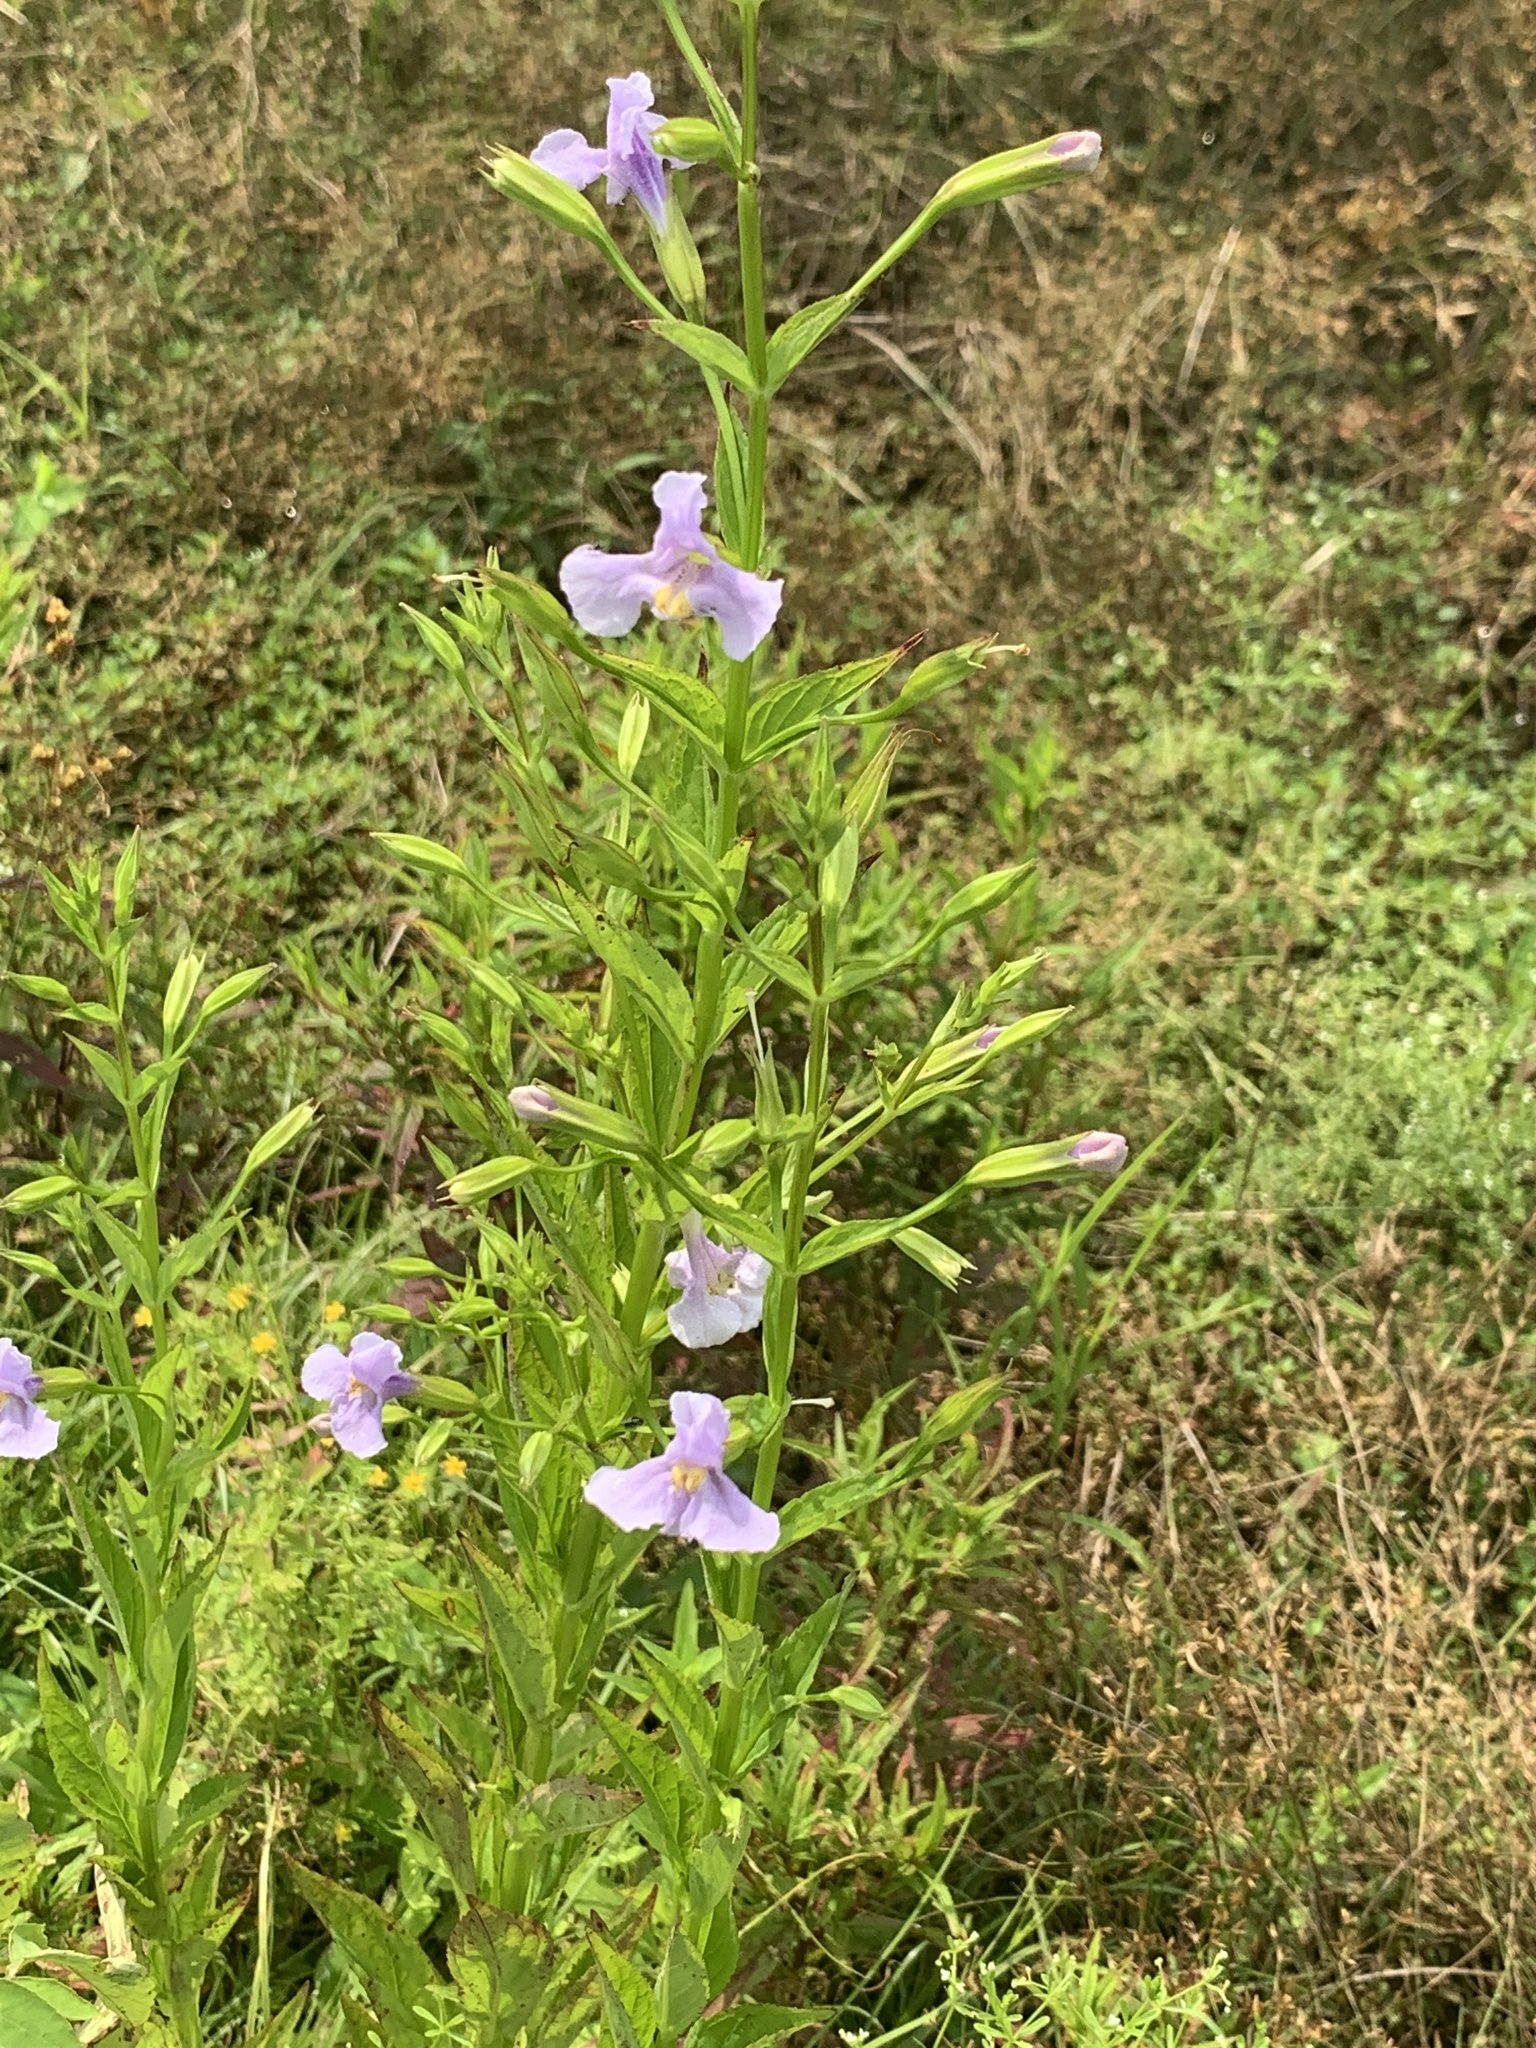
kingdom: Plantae
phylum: Tracheophyta
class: Magnoliopsida
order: Lamiales
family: Phrymaceae
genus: Mimulus
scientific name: Mimulus ringens
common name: Allegheny monkeyflower
